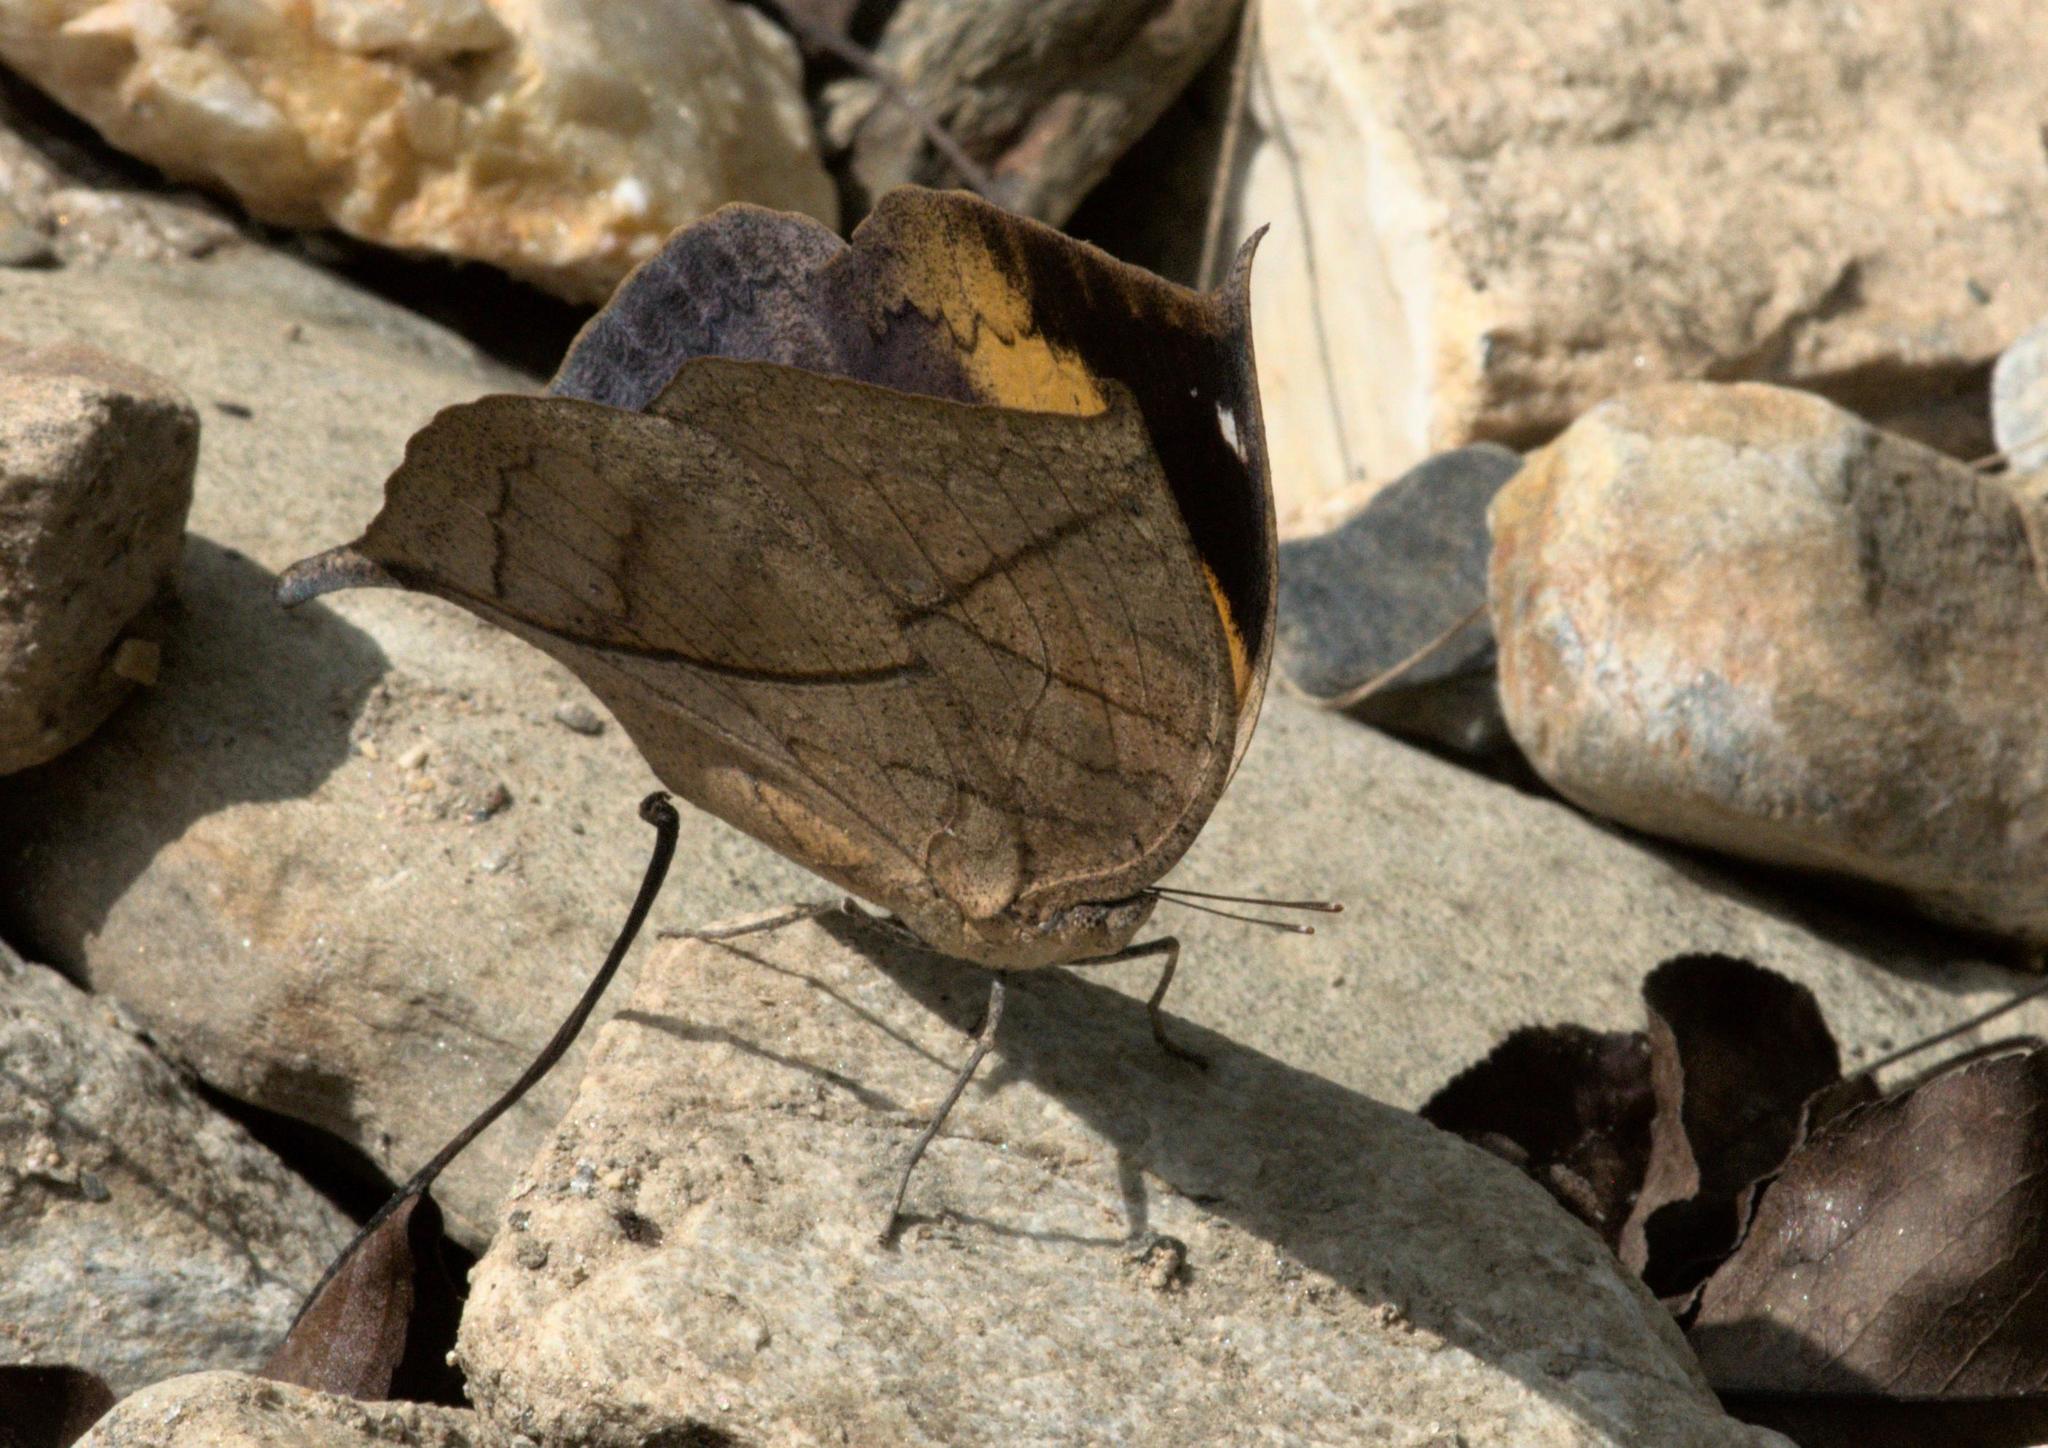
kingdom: Animalia
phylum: Arthropoda
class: Insecta
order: Lepidoptera
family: Nymphalidae
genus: Kallima
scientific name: Kallima inachus
